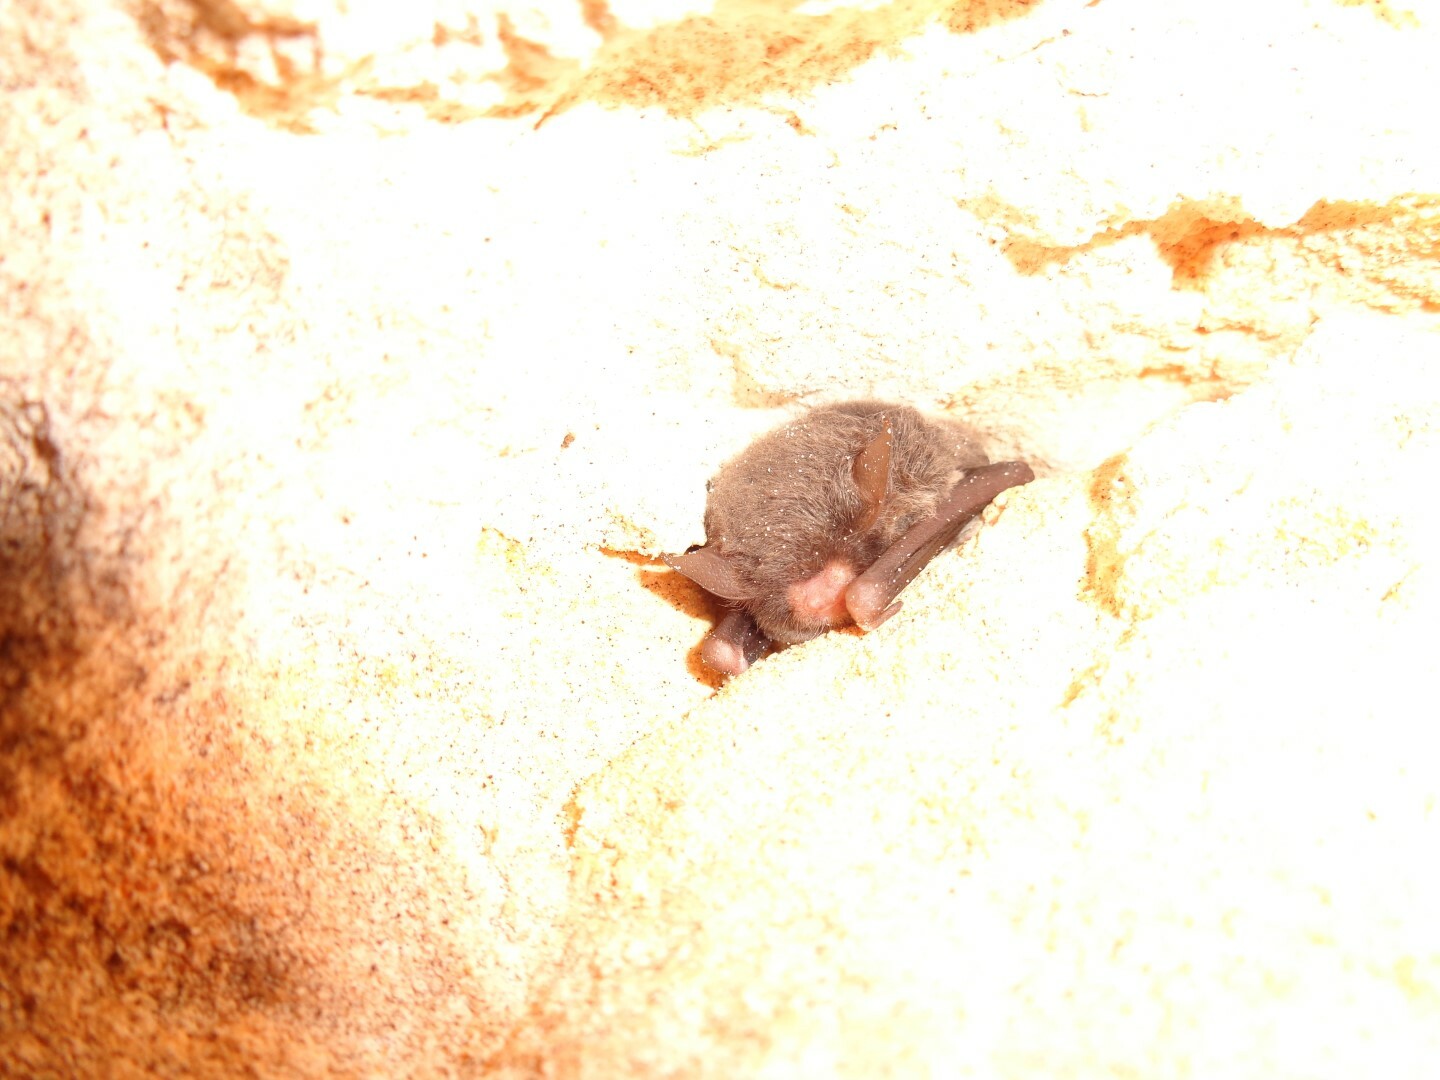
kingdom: Animalia
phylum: Chordata
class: Mammalia
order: Chiroptera
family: Vespertilionidae
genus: Myotis
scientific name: Myotis pilosatibialis
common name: Northern hairy-legged myotis
